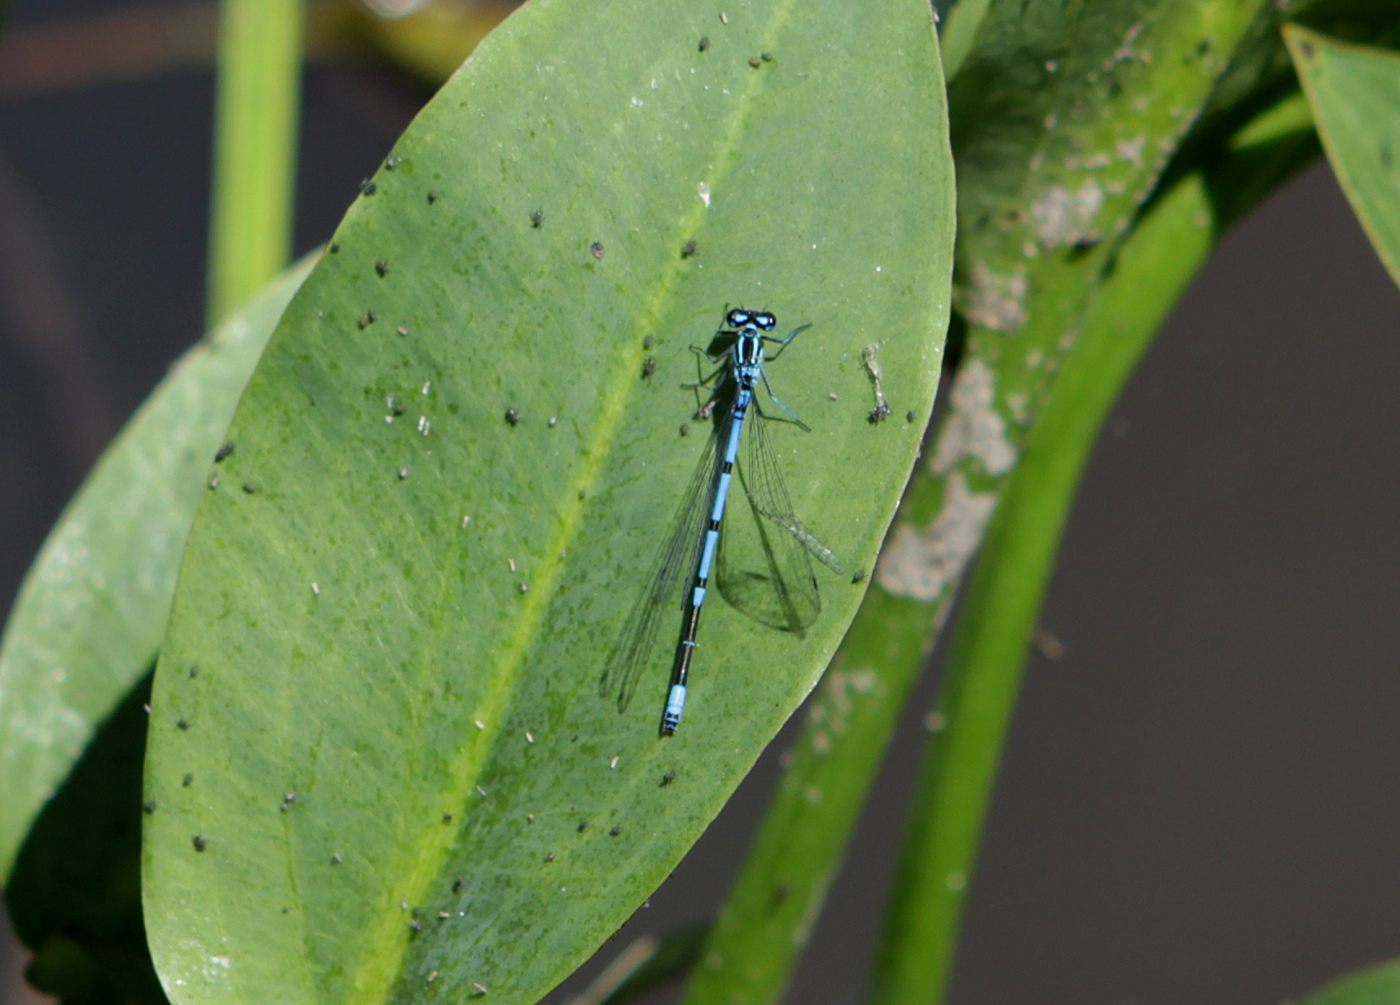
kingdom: Animalia
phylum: Arthropoda
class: Insecta
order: Odonata
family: Coenagrionidae
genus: Coenagrion
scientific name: Coenagrion puella
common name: Azure damselfly
